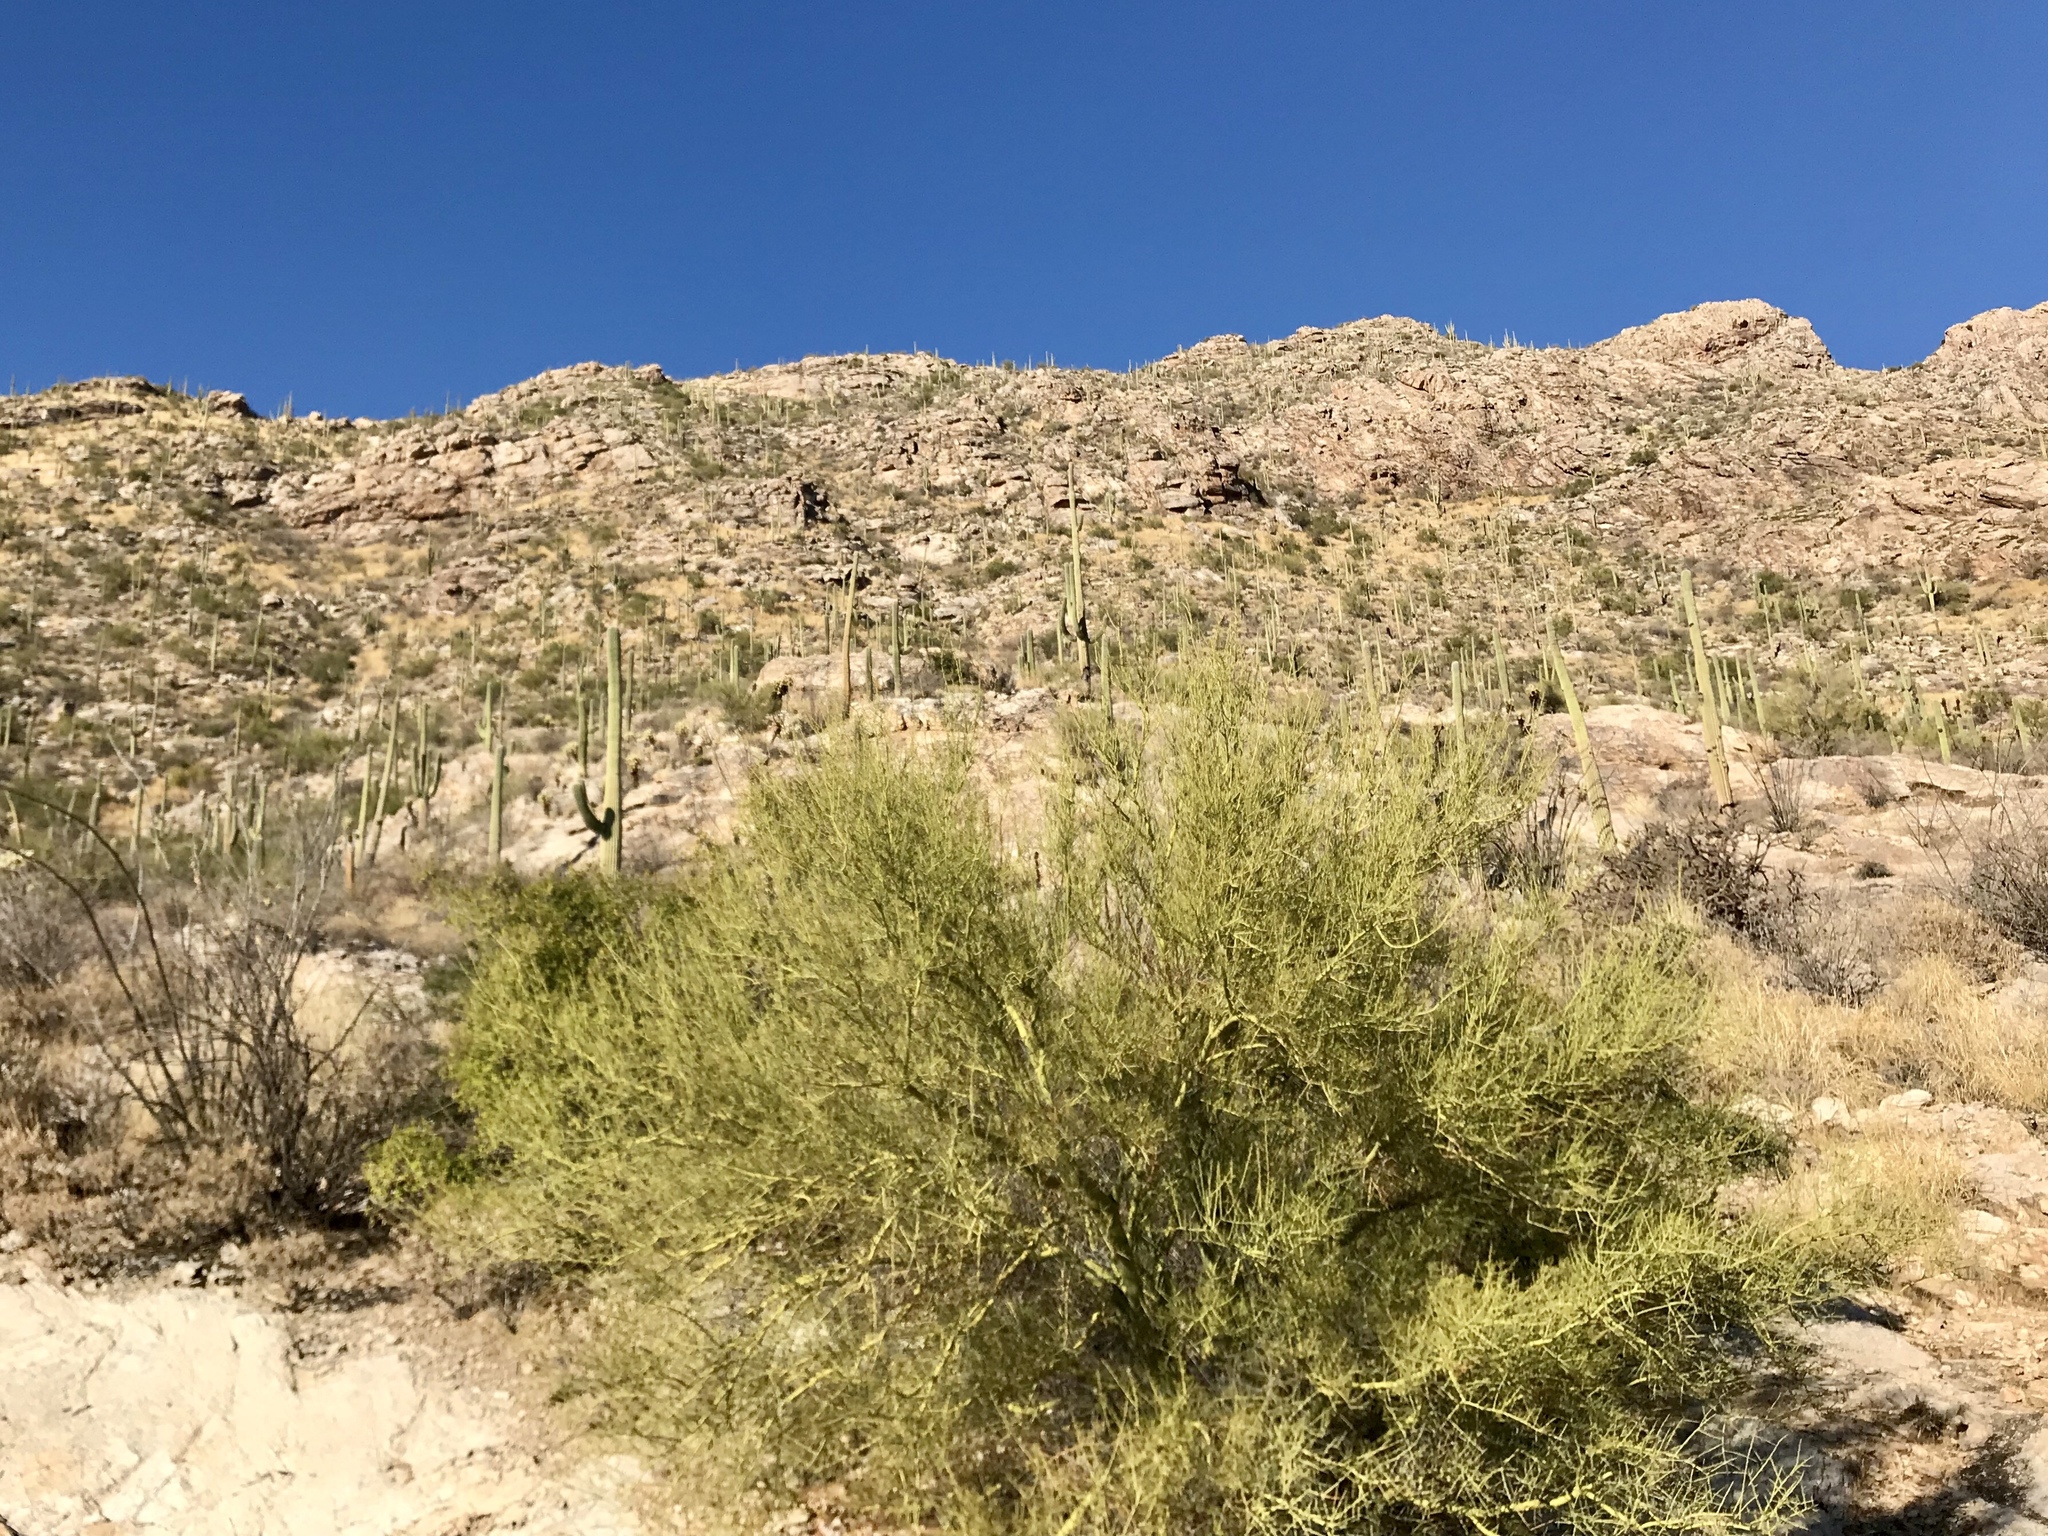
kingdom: Plantae
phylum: Tracheophyta
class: Magnoliopsida
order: Fabales
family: Fabaceae
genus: Parkinsonia
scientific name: Parkinsonia microphylla
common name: Yellow paloverde
